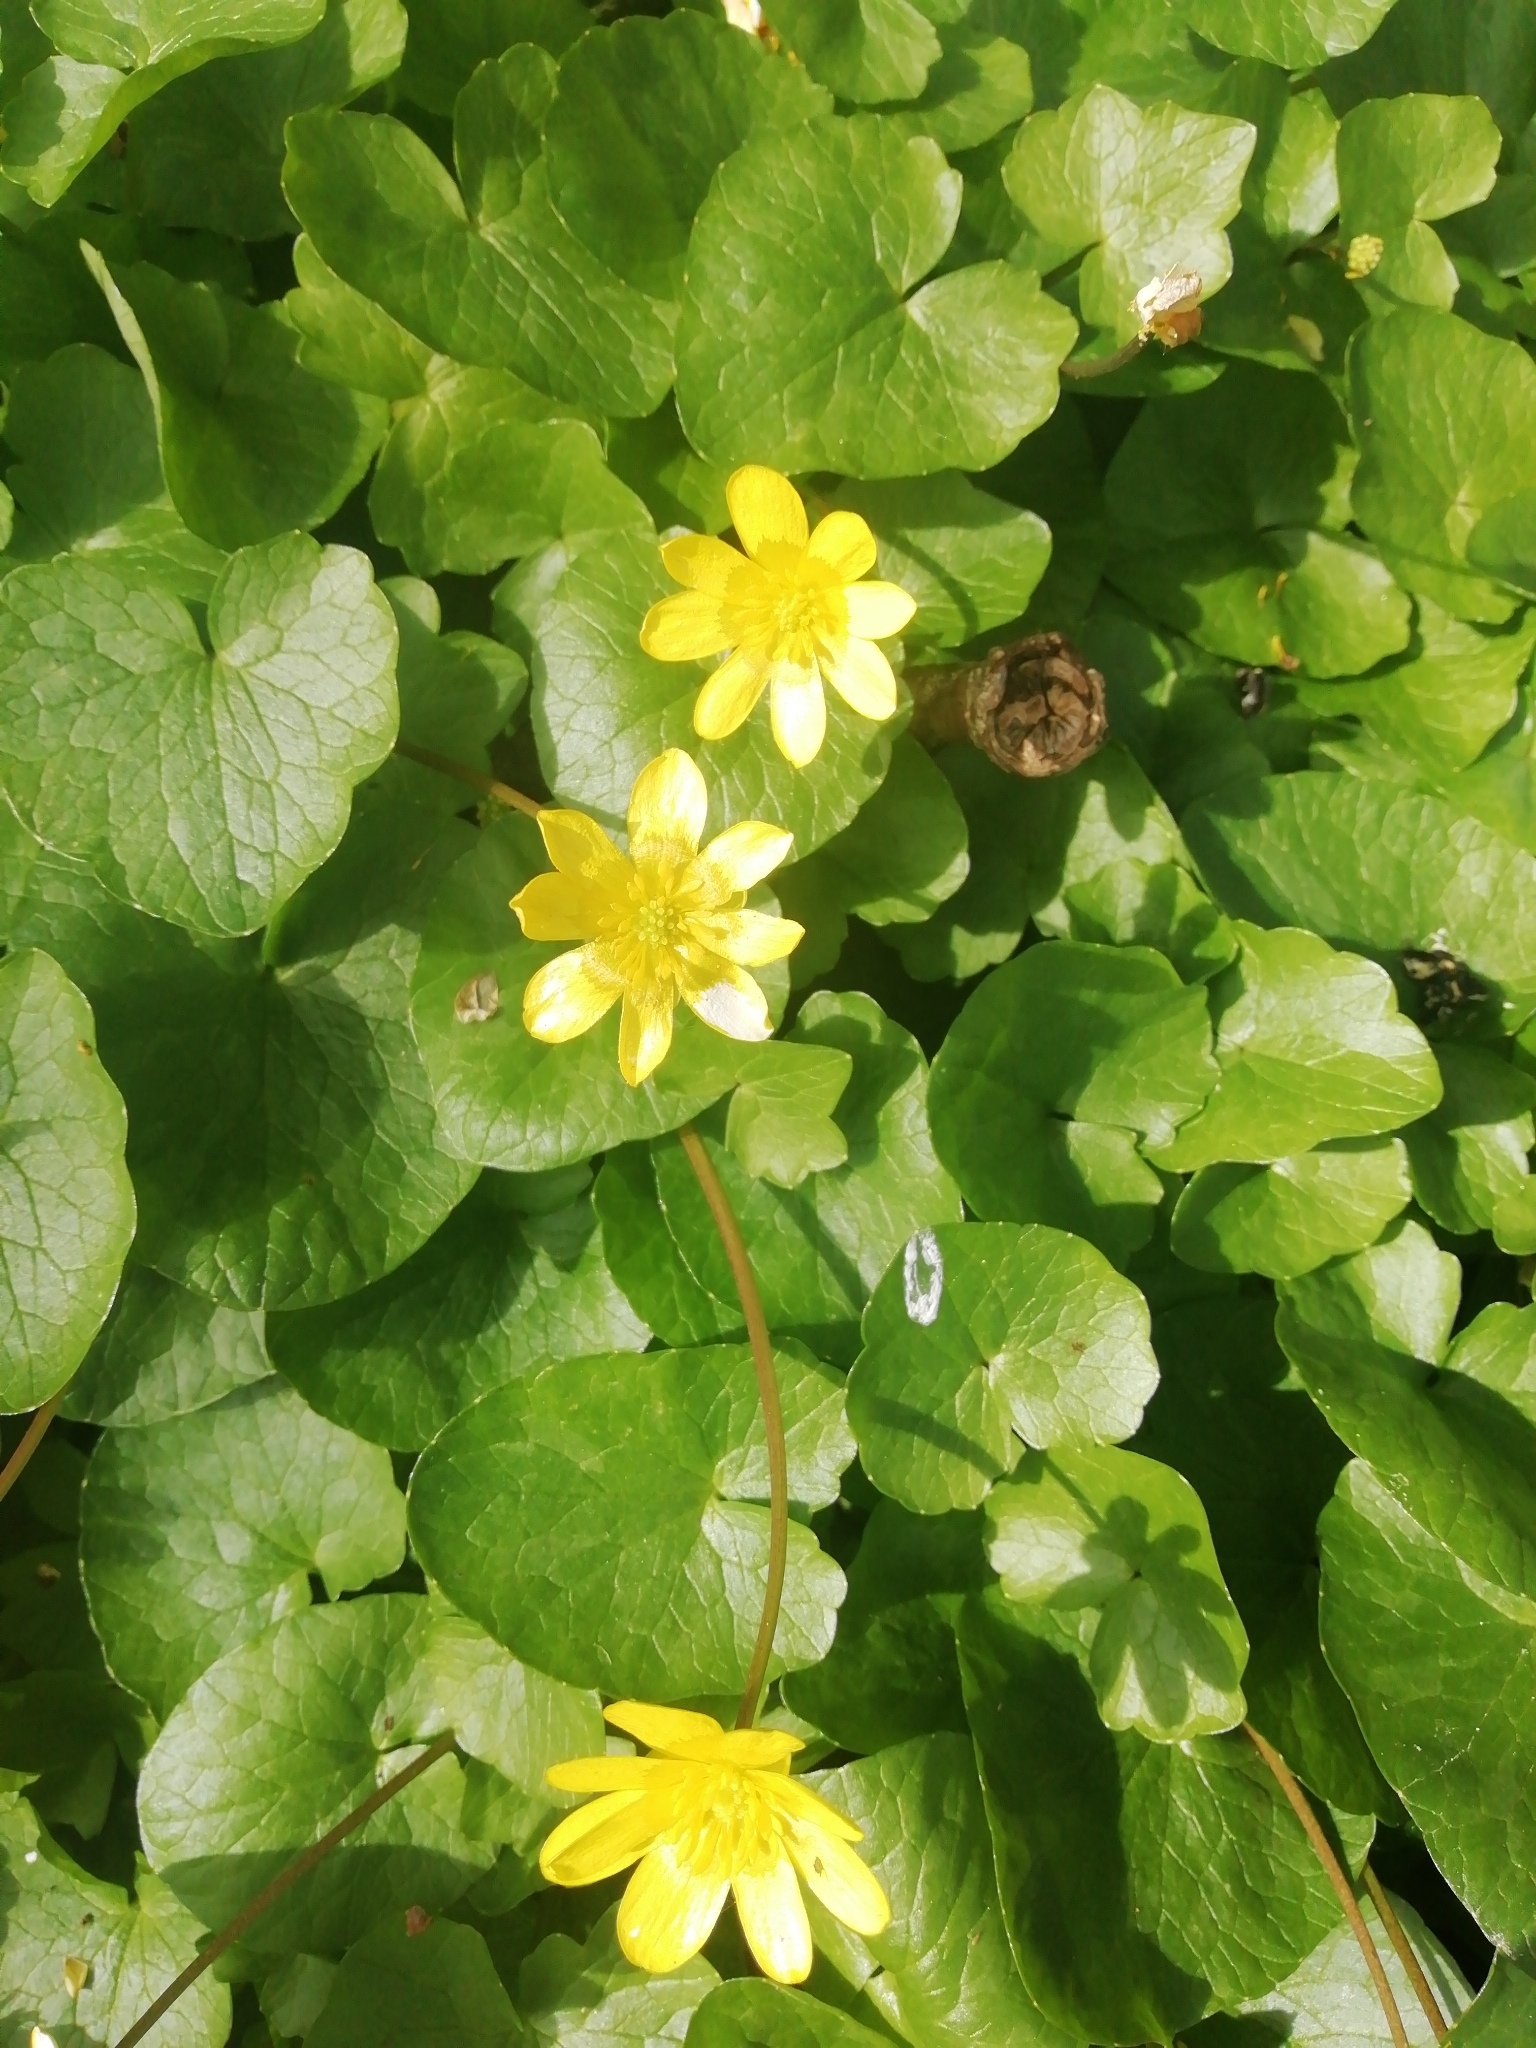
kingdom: Plantae
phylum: Tracheophyta
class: Magnoliopsida
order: Ranunculales
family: Ranunculaceae
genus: Ficaria
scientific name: Ficaria verna
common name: Lesser celandine
